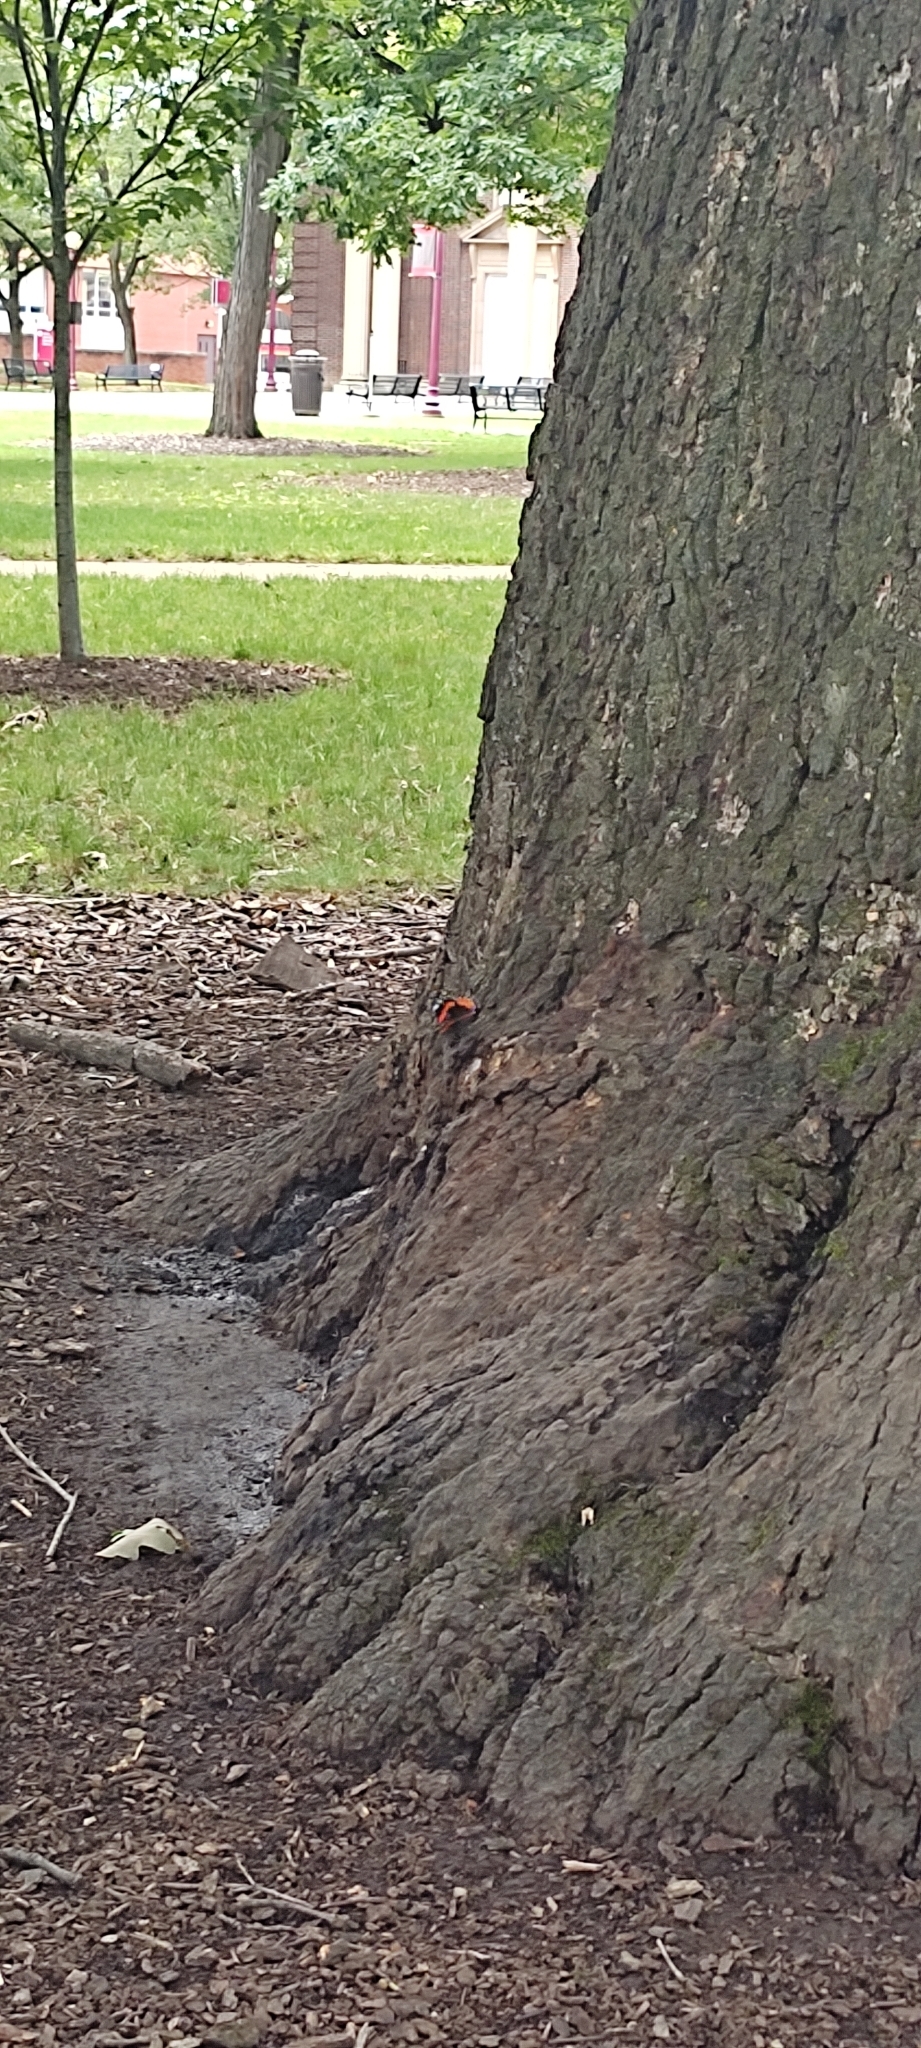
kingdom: Animalia
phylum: Arthropoda
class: Insecta
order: Lepidoptera
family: Nymphalidae
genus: Vanessa
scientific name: Vanessa atalanta
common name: Red admiral
